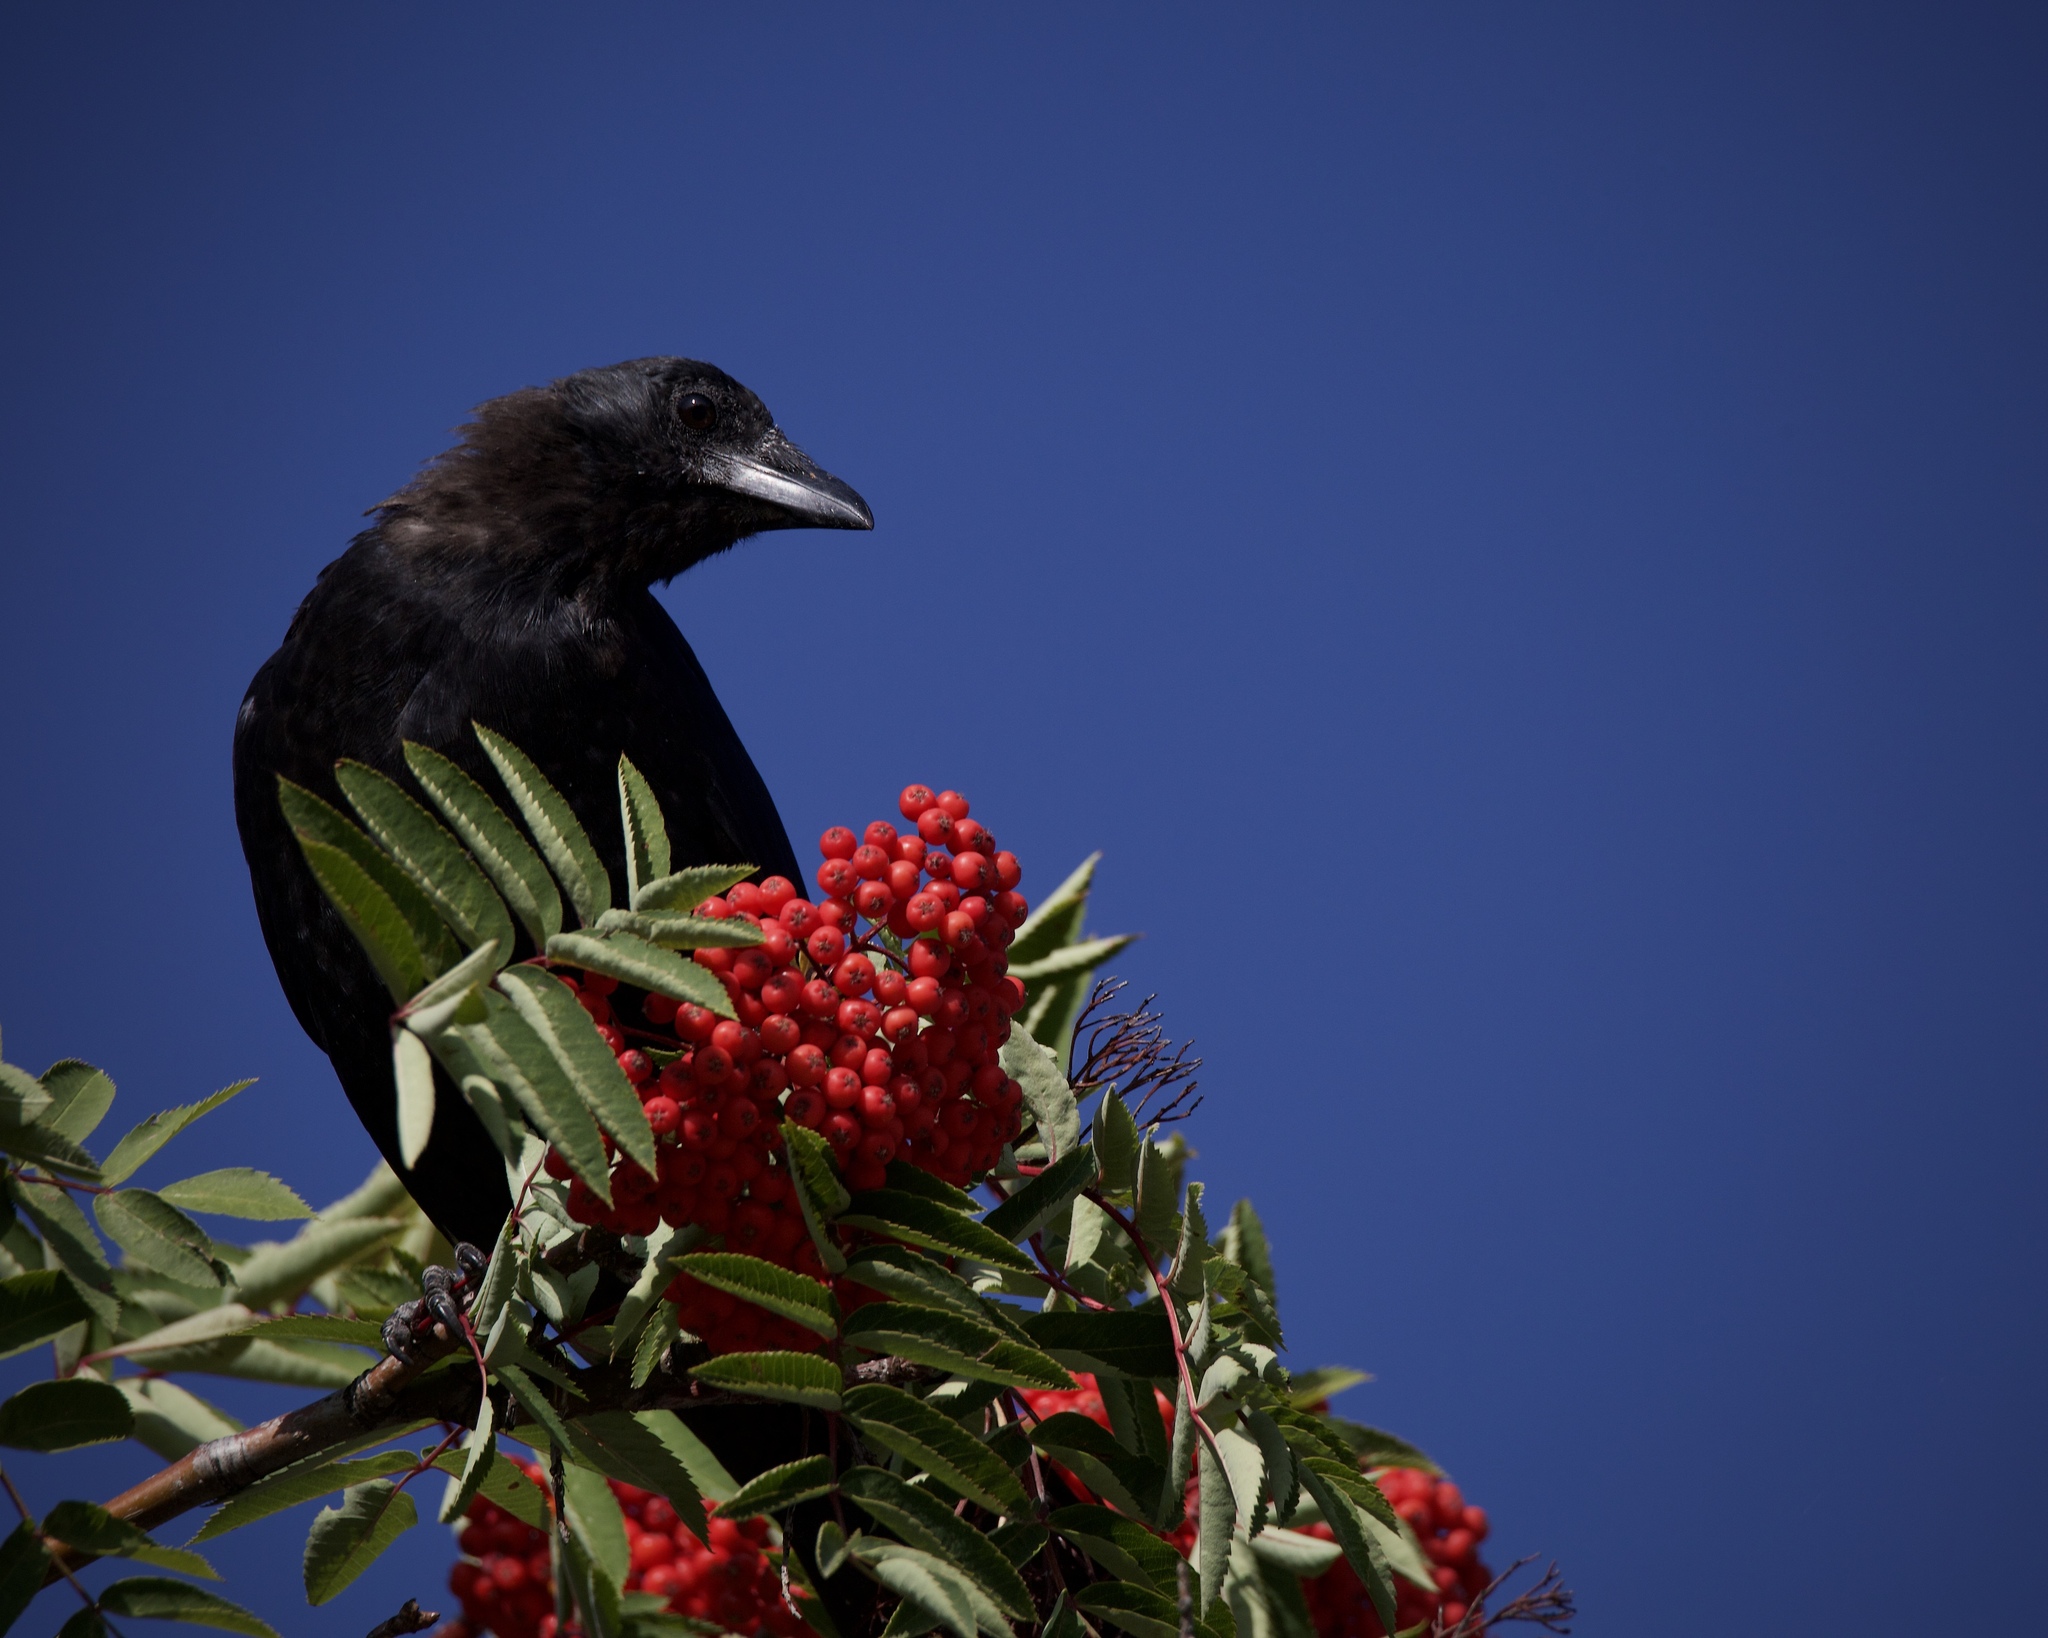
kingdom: Animalia
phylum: Chordata
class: Aves
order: Passeriformes
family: Corvidae
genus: Corvus
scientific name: Corvus brachyrhynchos
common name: American crow
